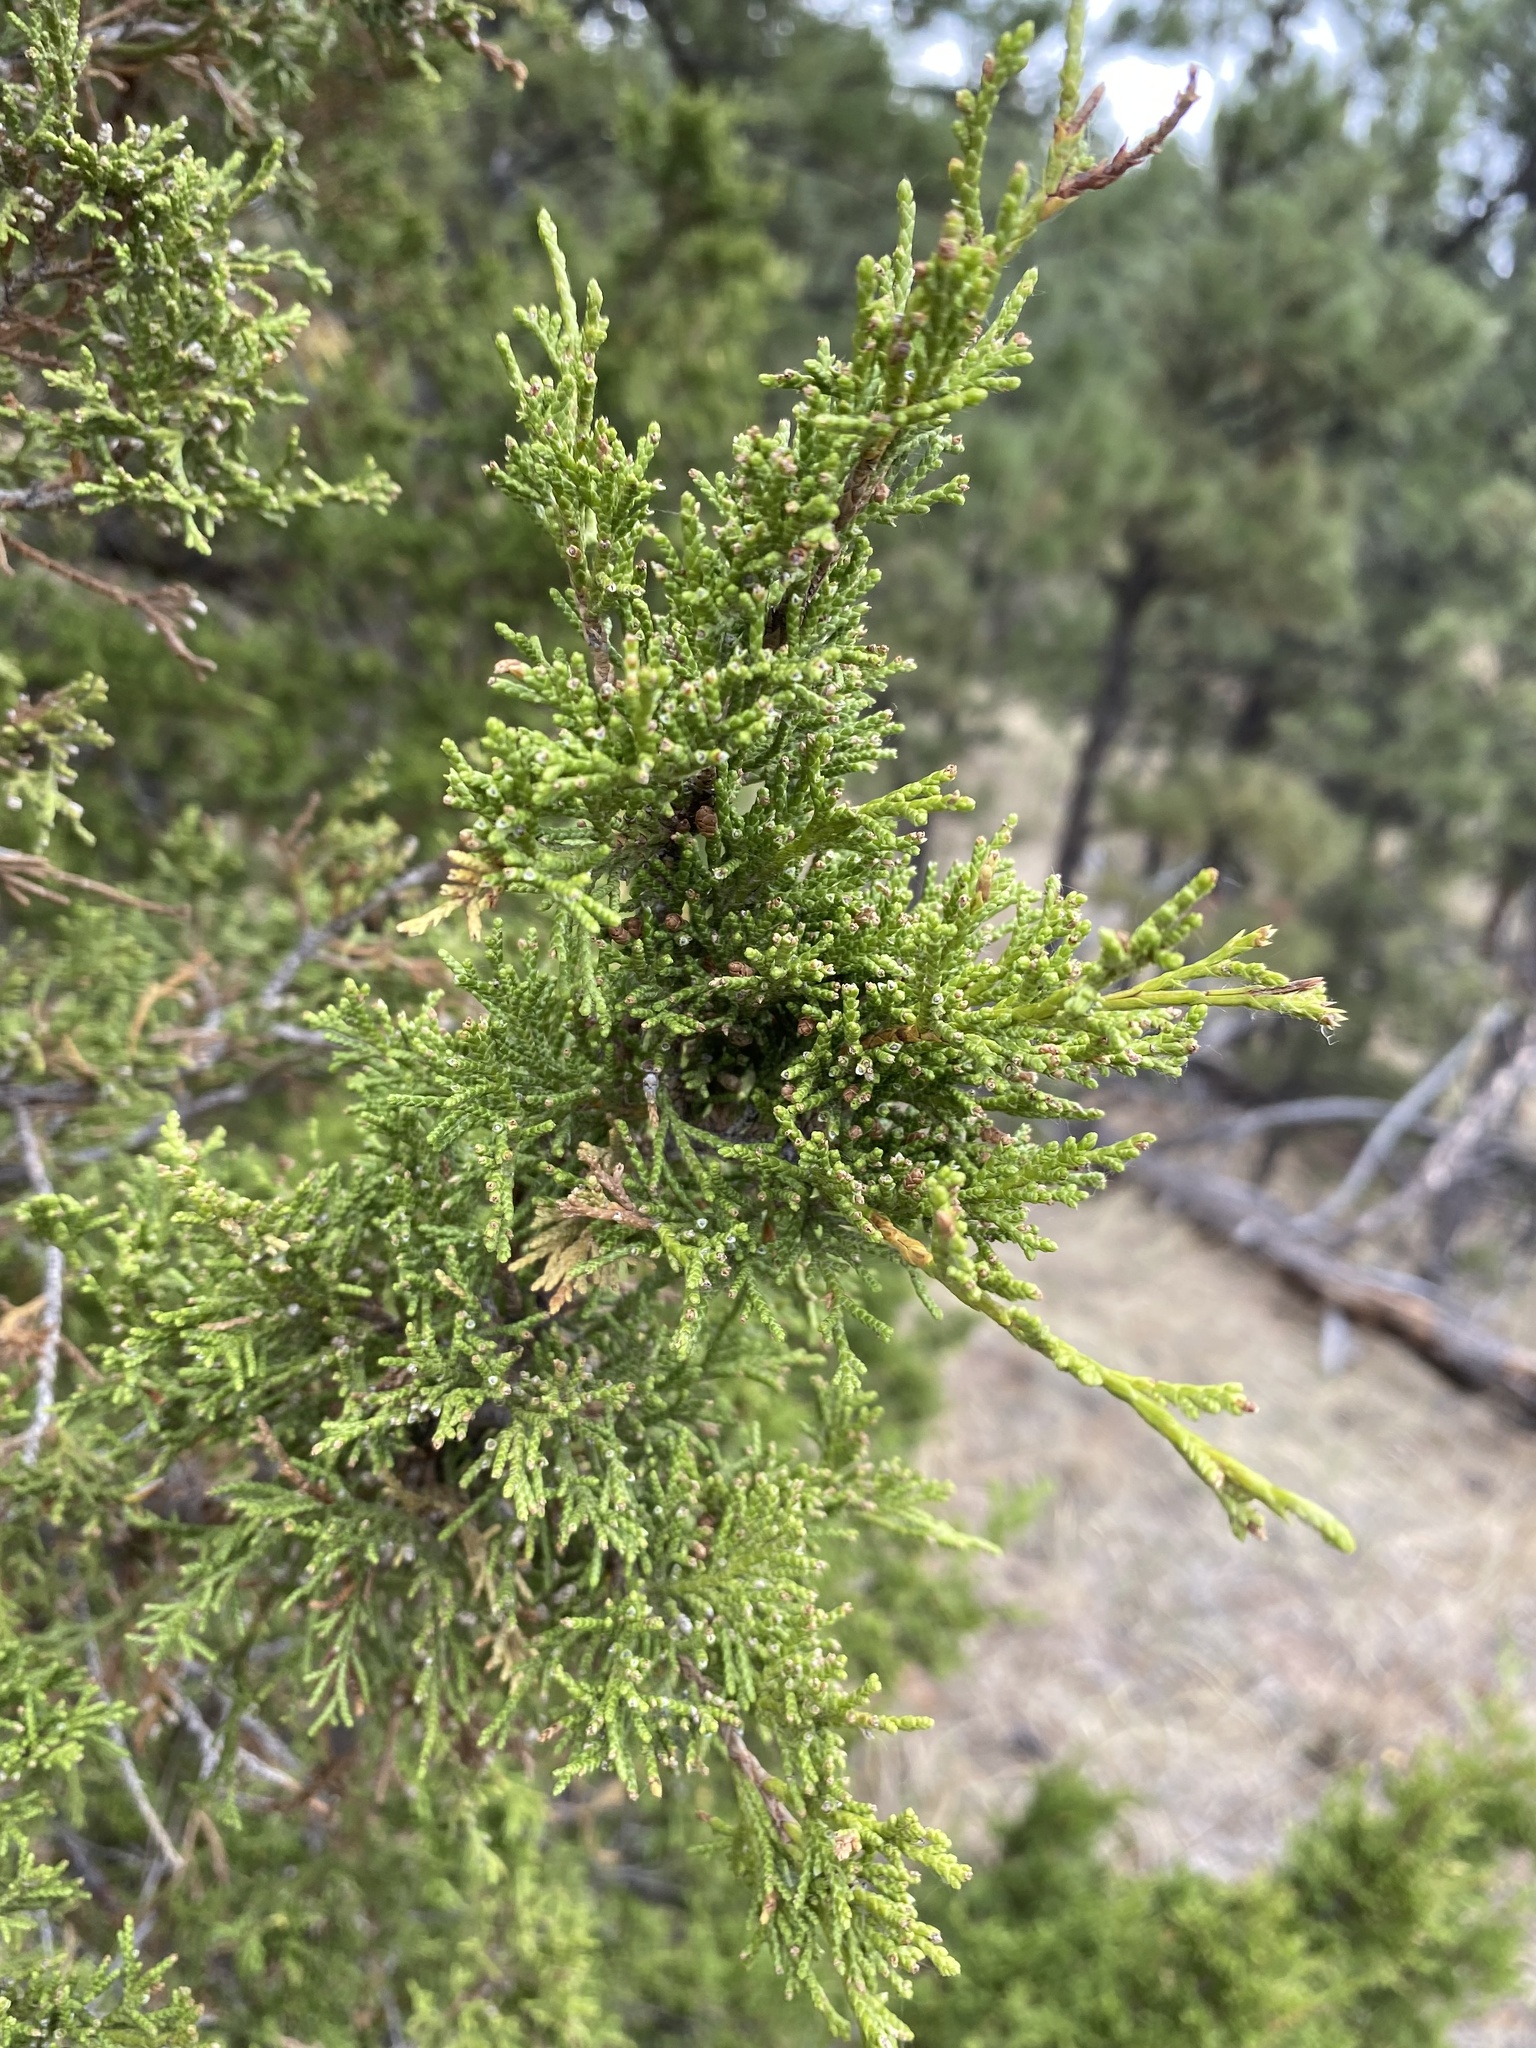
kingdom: Plantae
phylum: Tracheophyta
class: Pinopsida
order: Pinales
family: Cupressaceae
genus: Juniperus
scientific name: Juniperus scopulorum
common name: Rocky mountain juniper
